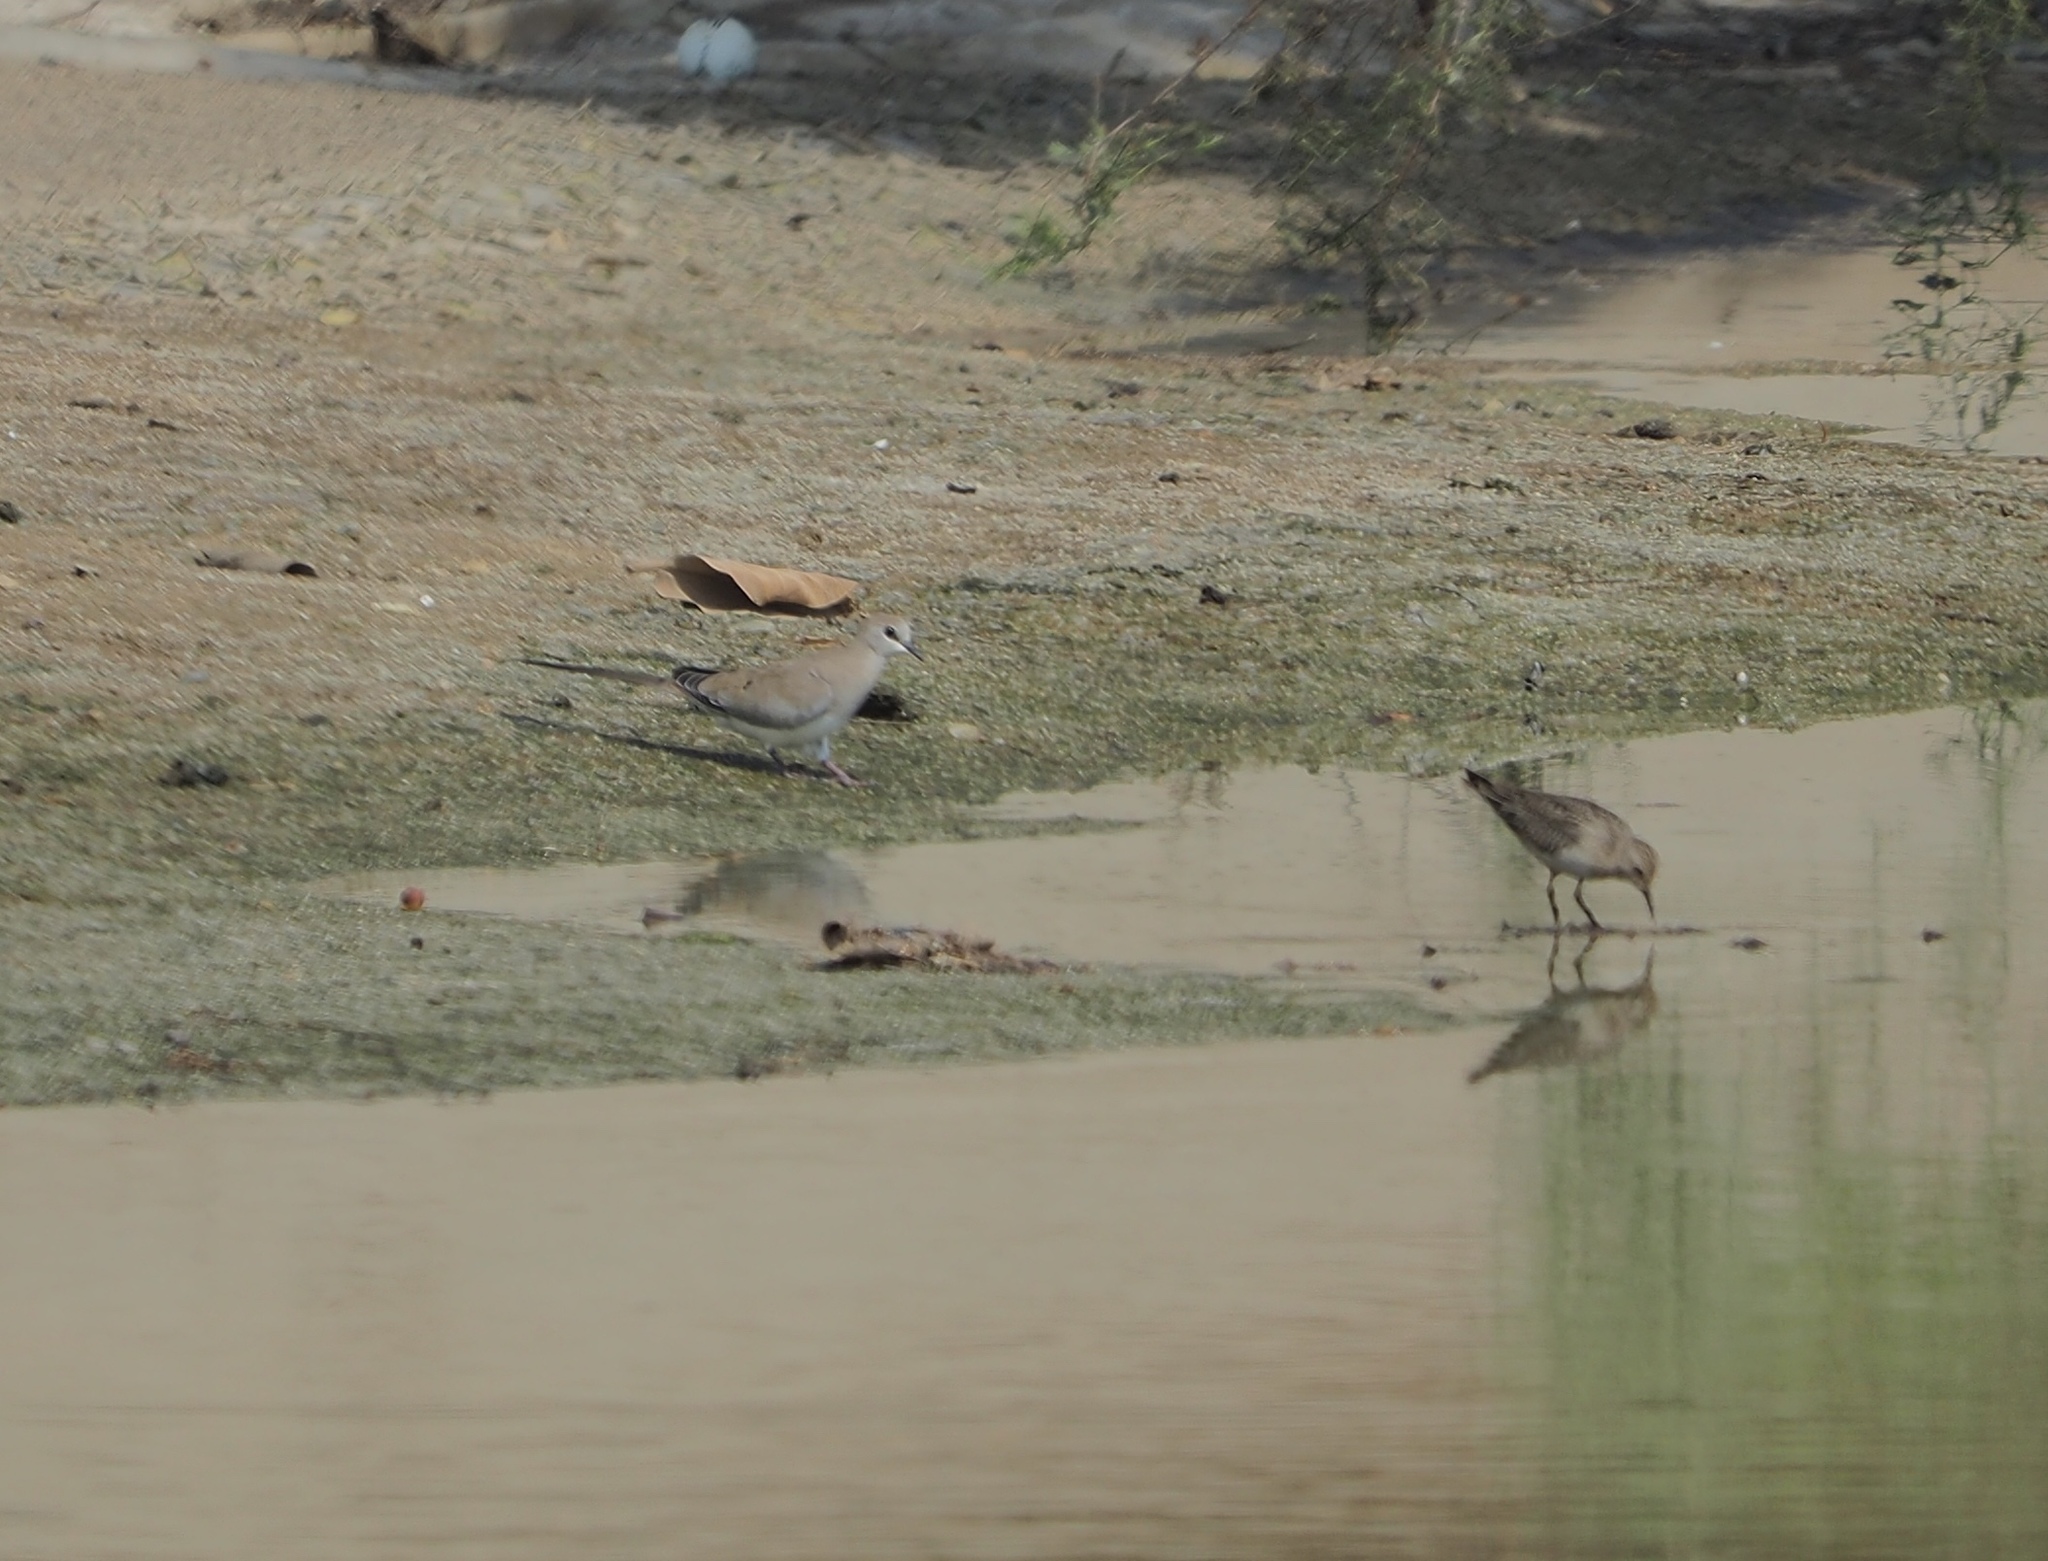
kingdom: Animalia
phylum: Chordata
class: Aves
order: Columbiformes
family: Columbidae
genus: Oena
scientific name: Oena capensis
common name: Namaqua dove
